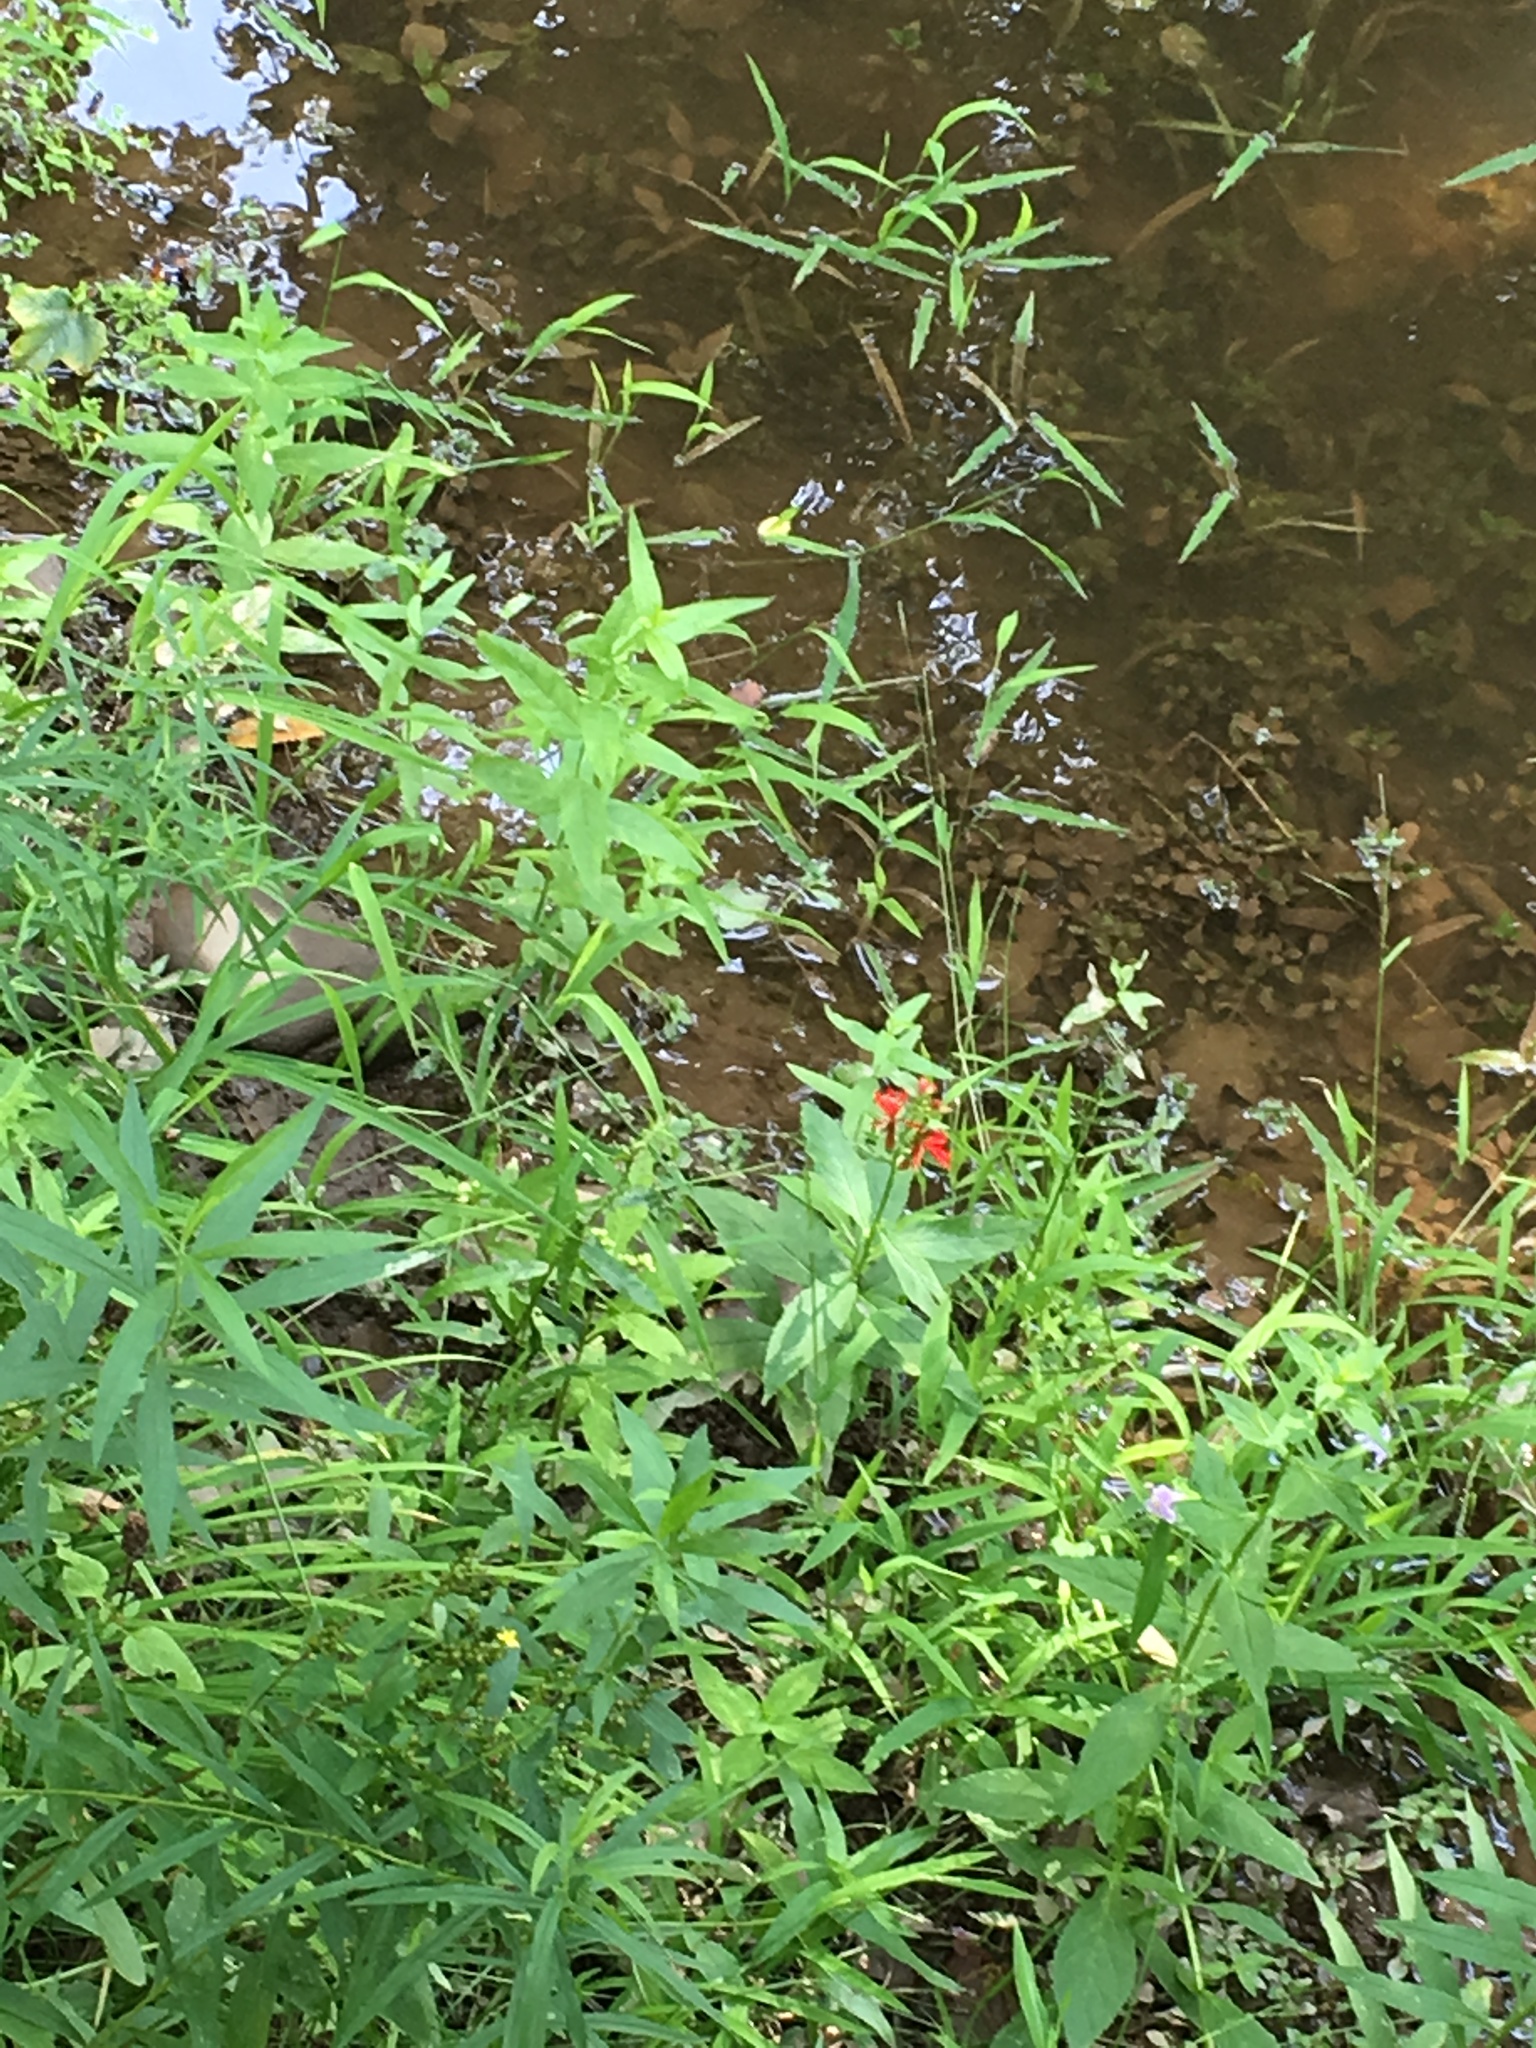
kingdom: Plantae
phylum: Tracheophyta
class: Magnoliopsida
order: Asterales
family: Campanulaceae
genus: Lobelia
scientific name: Lobelia cardinalis
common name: Cardinal flower
